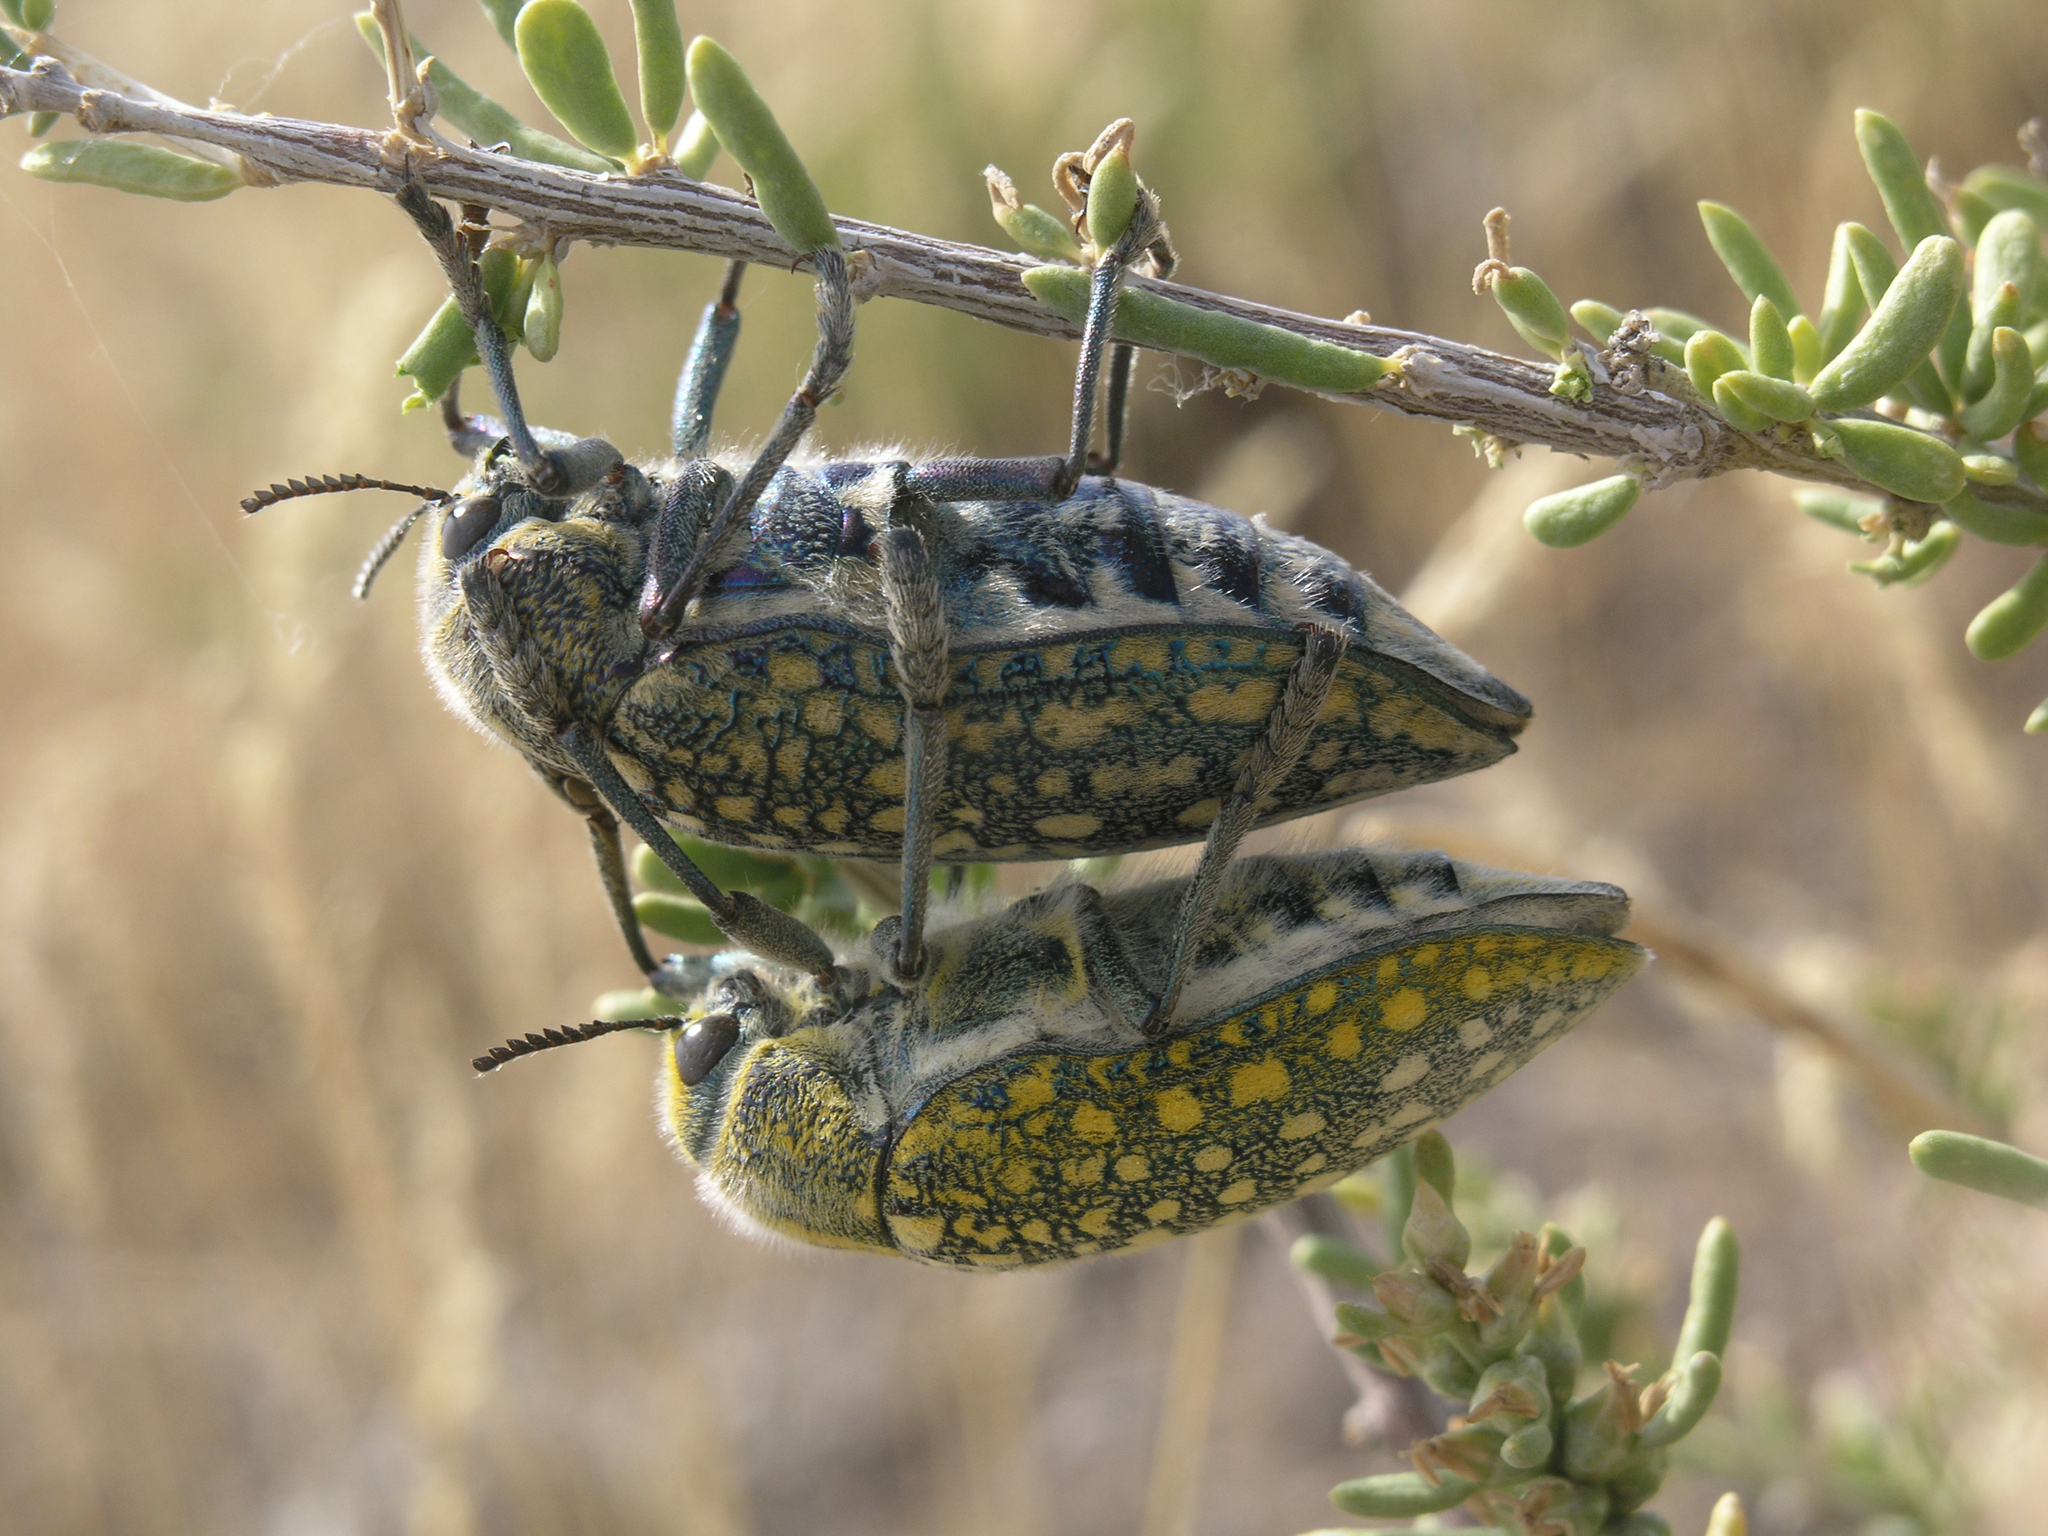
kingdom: Animalia
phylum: Arthropoda
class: Insecta
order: Coleoptera
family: Buprestidae
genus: Julodis
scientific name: Julodis variolaris
